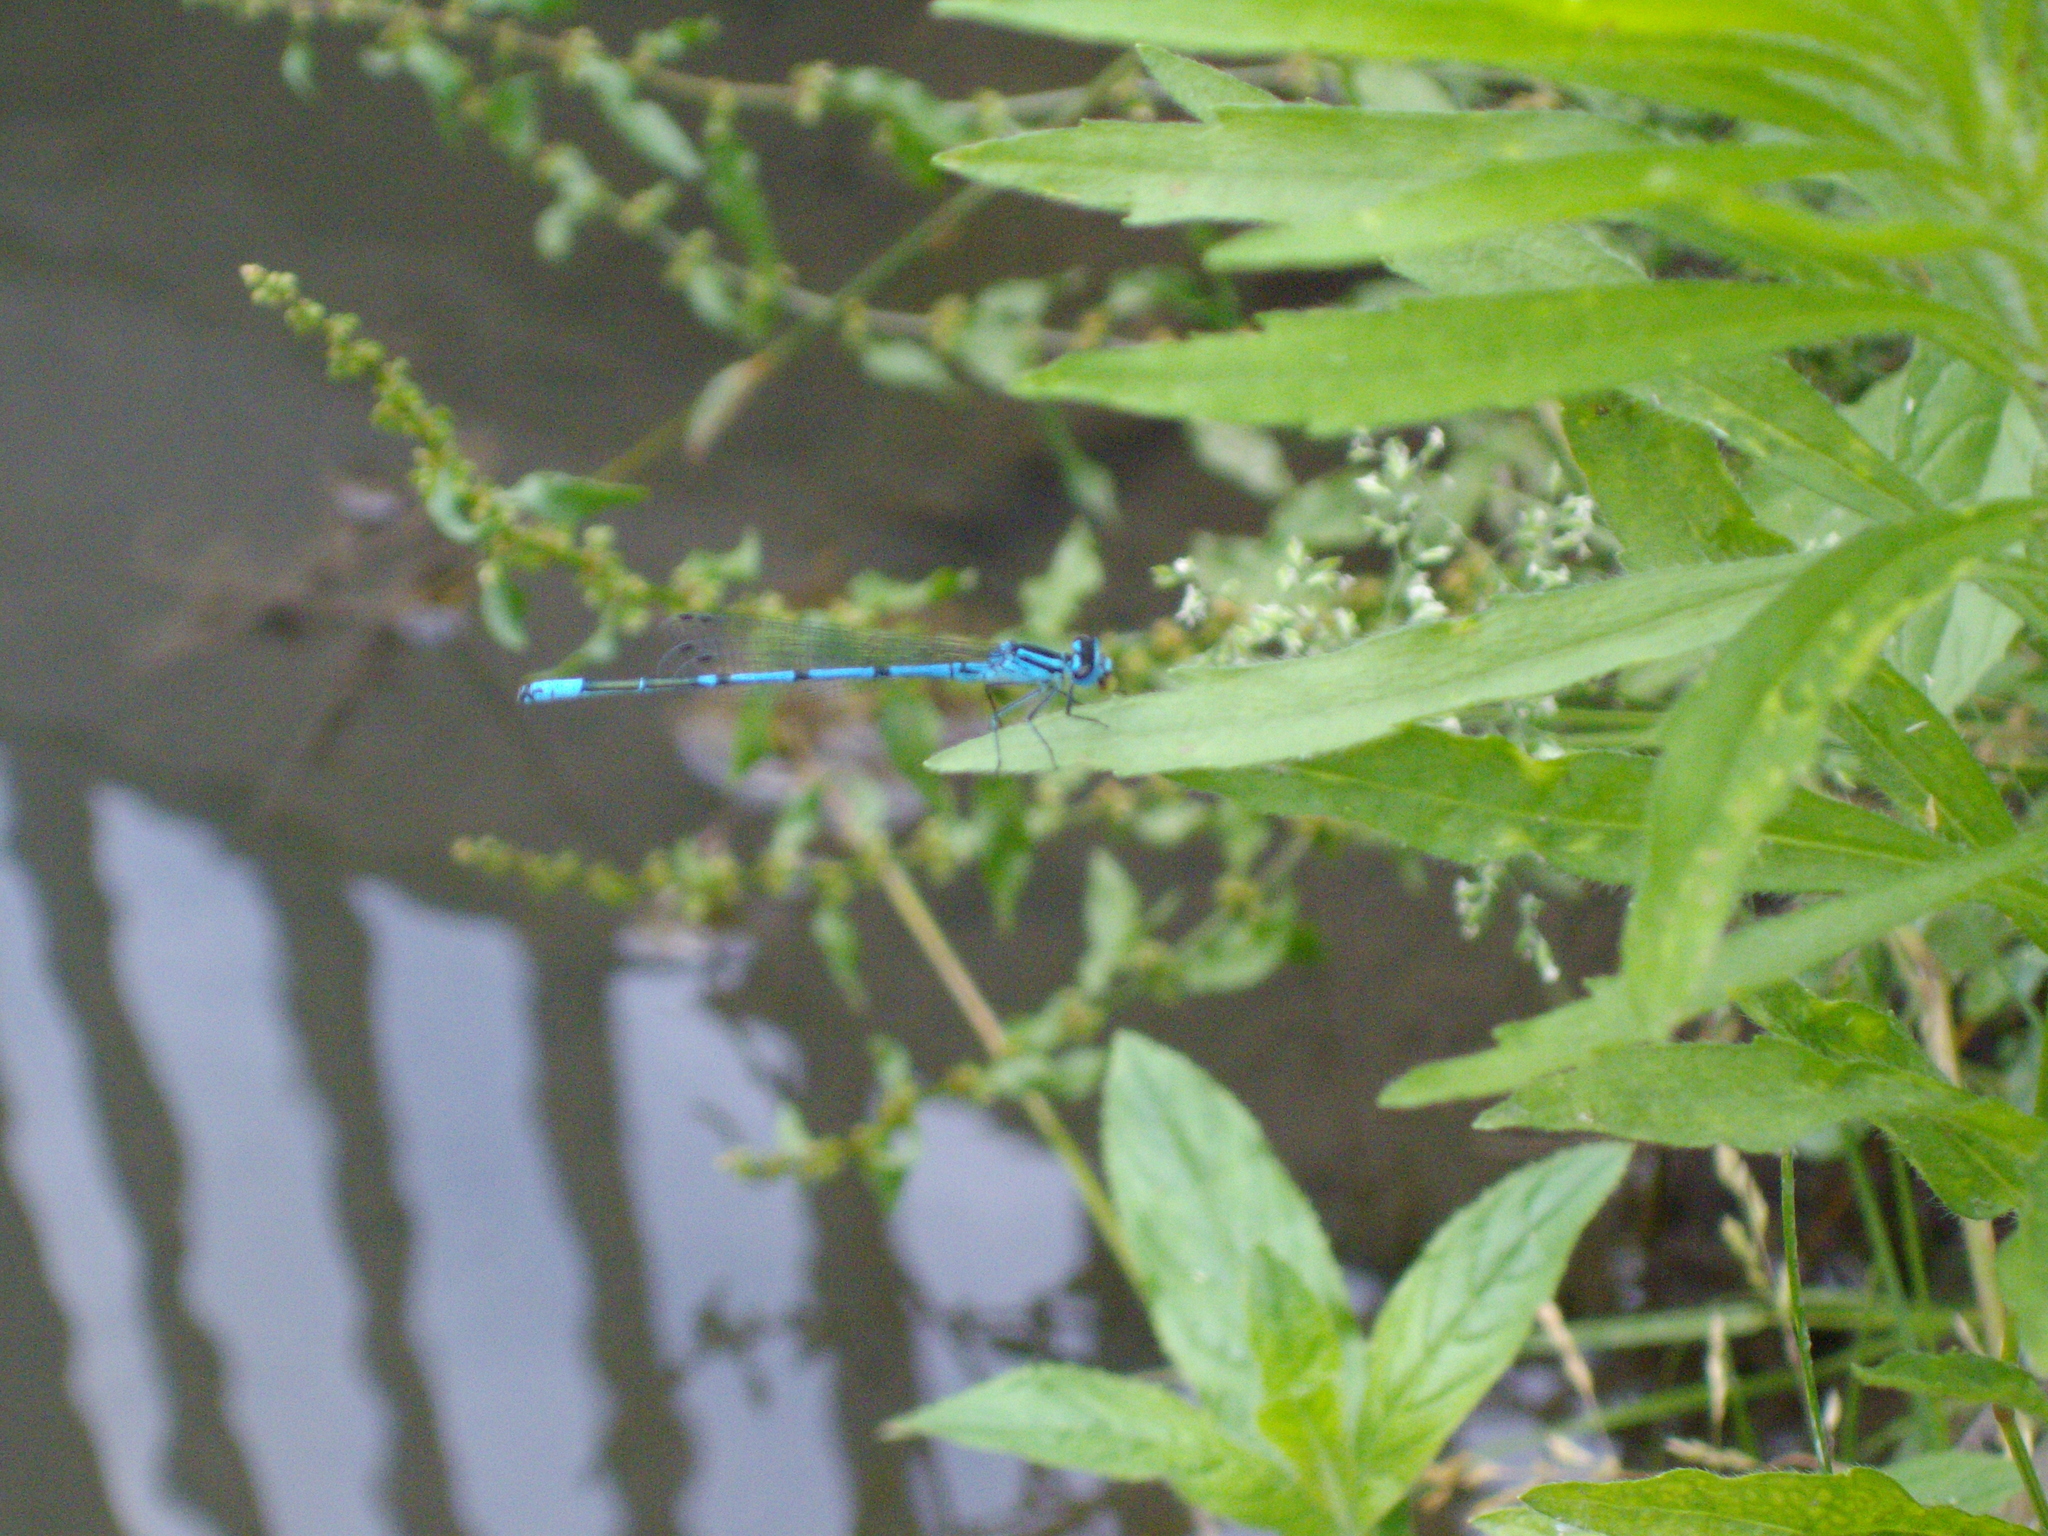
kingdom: Animalia
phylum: Arthropoda
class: Insecta
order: Odonata
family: Coenagrionidae
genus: Coenagrion
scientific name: Coenagrion puella
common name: Azure damselfly
